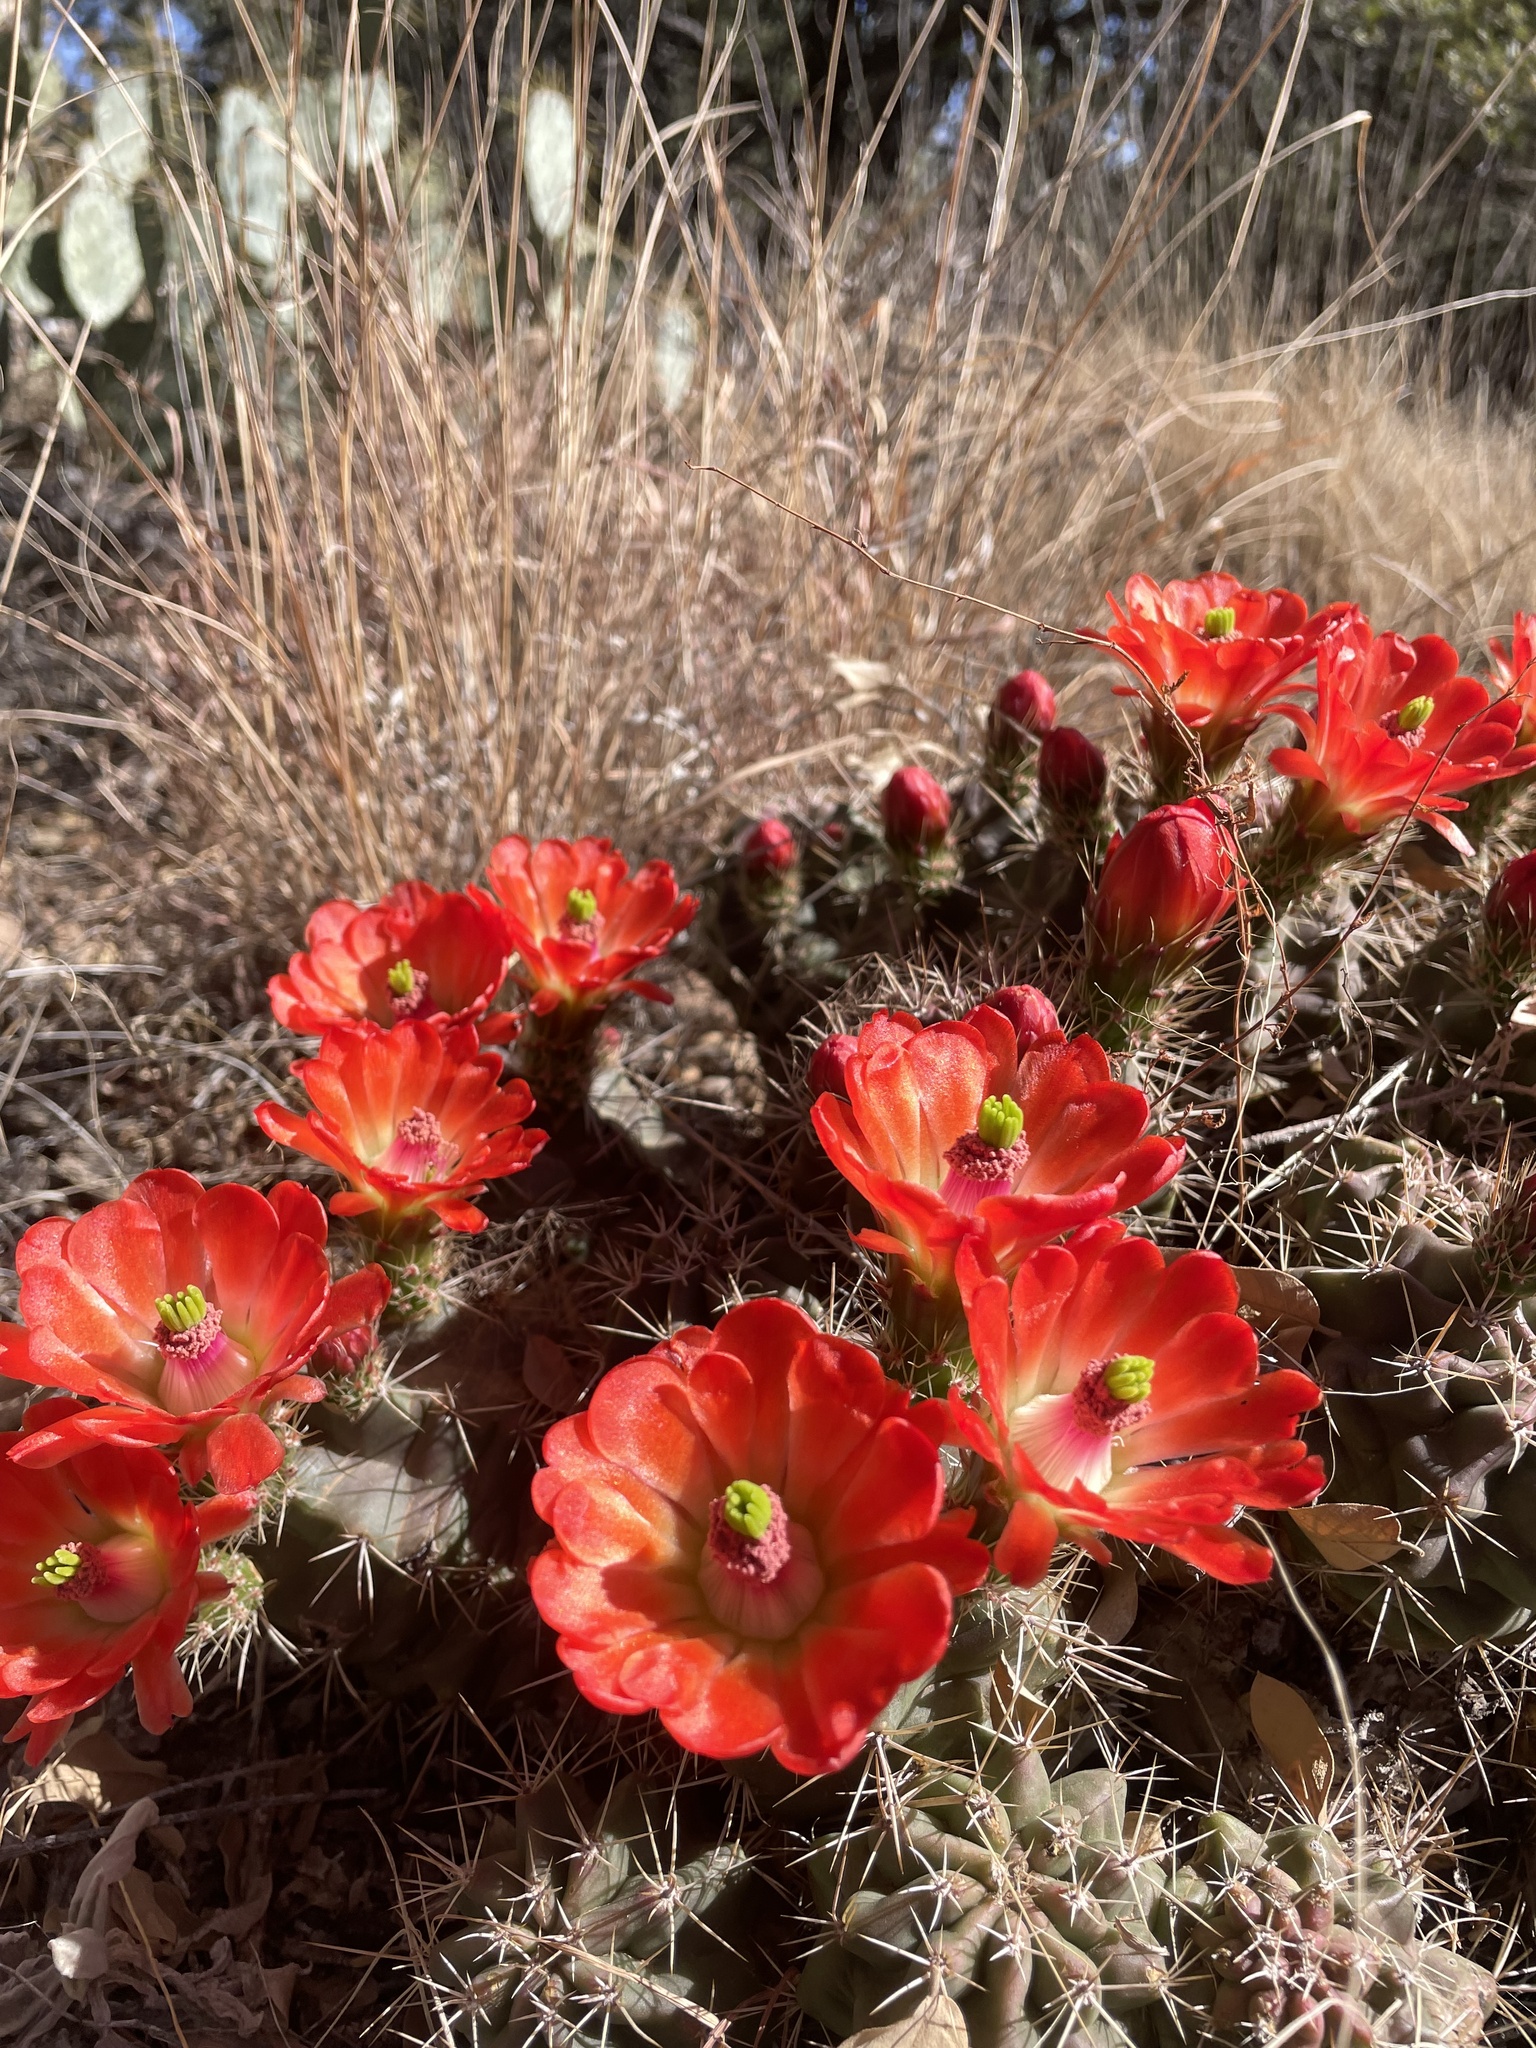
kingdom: Plantae
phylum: Tracheophyta
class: Magnoliopsida
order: Caryophyllales
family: Cactaceae
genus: Echinocereus
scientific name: Echinocereus coccineus
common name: Scarlet hedgehog cactus
